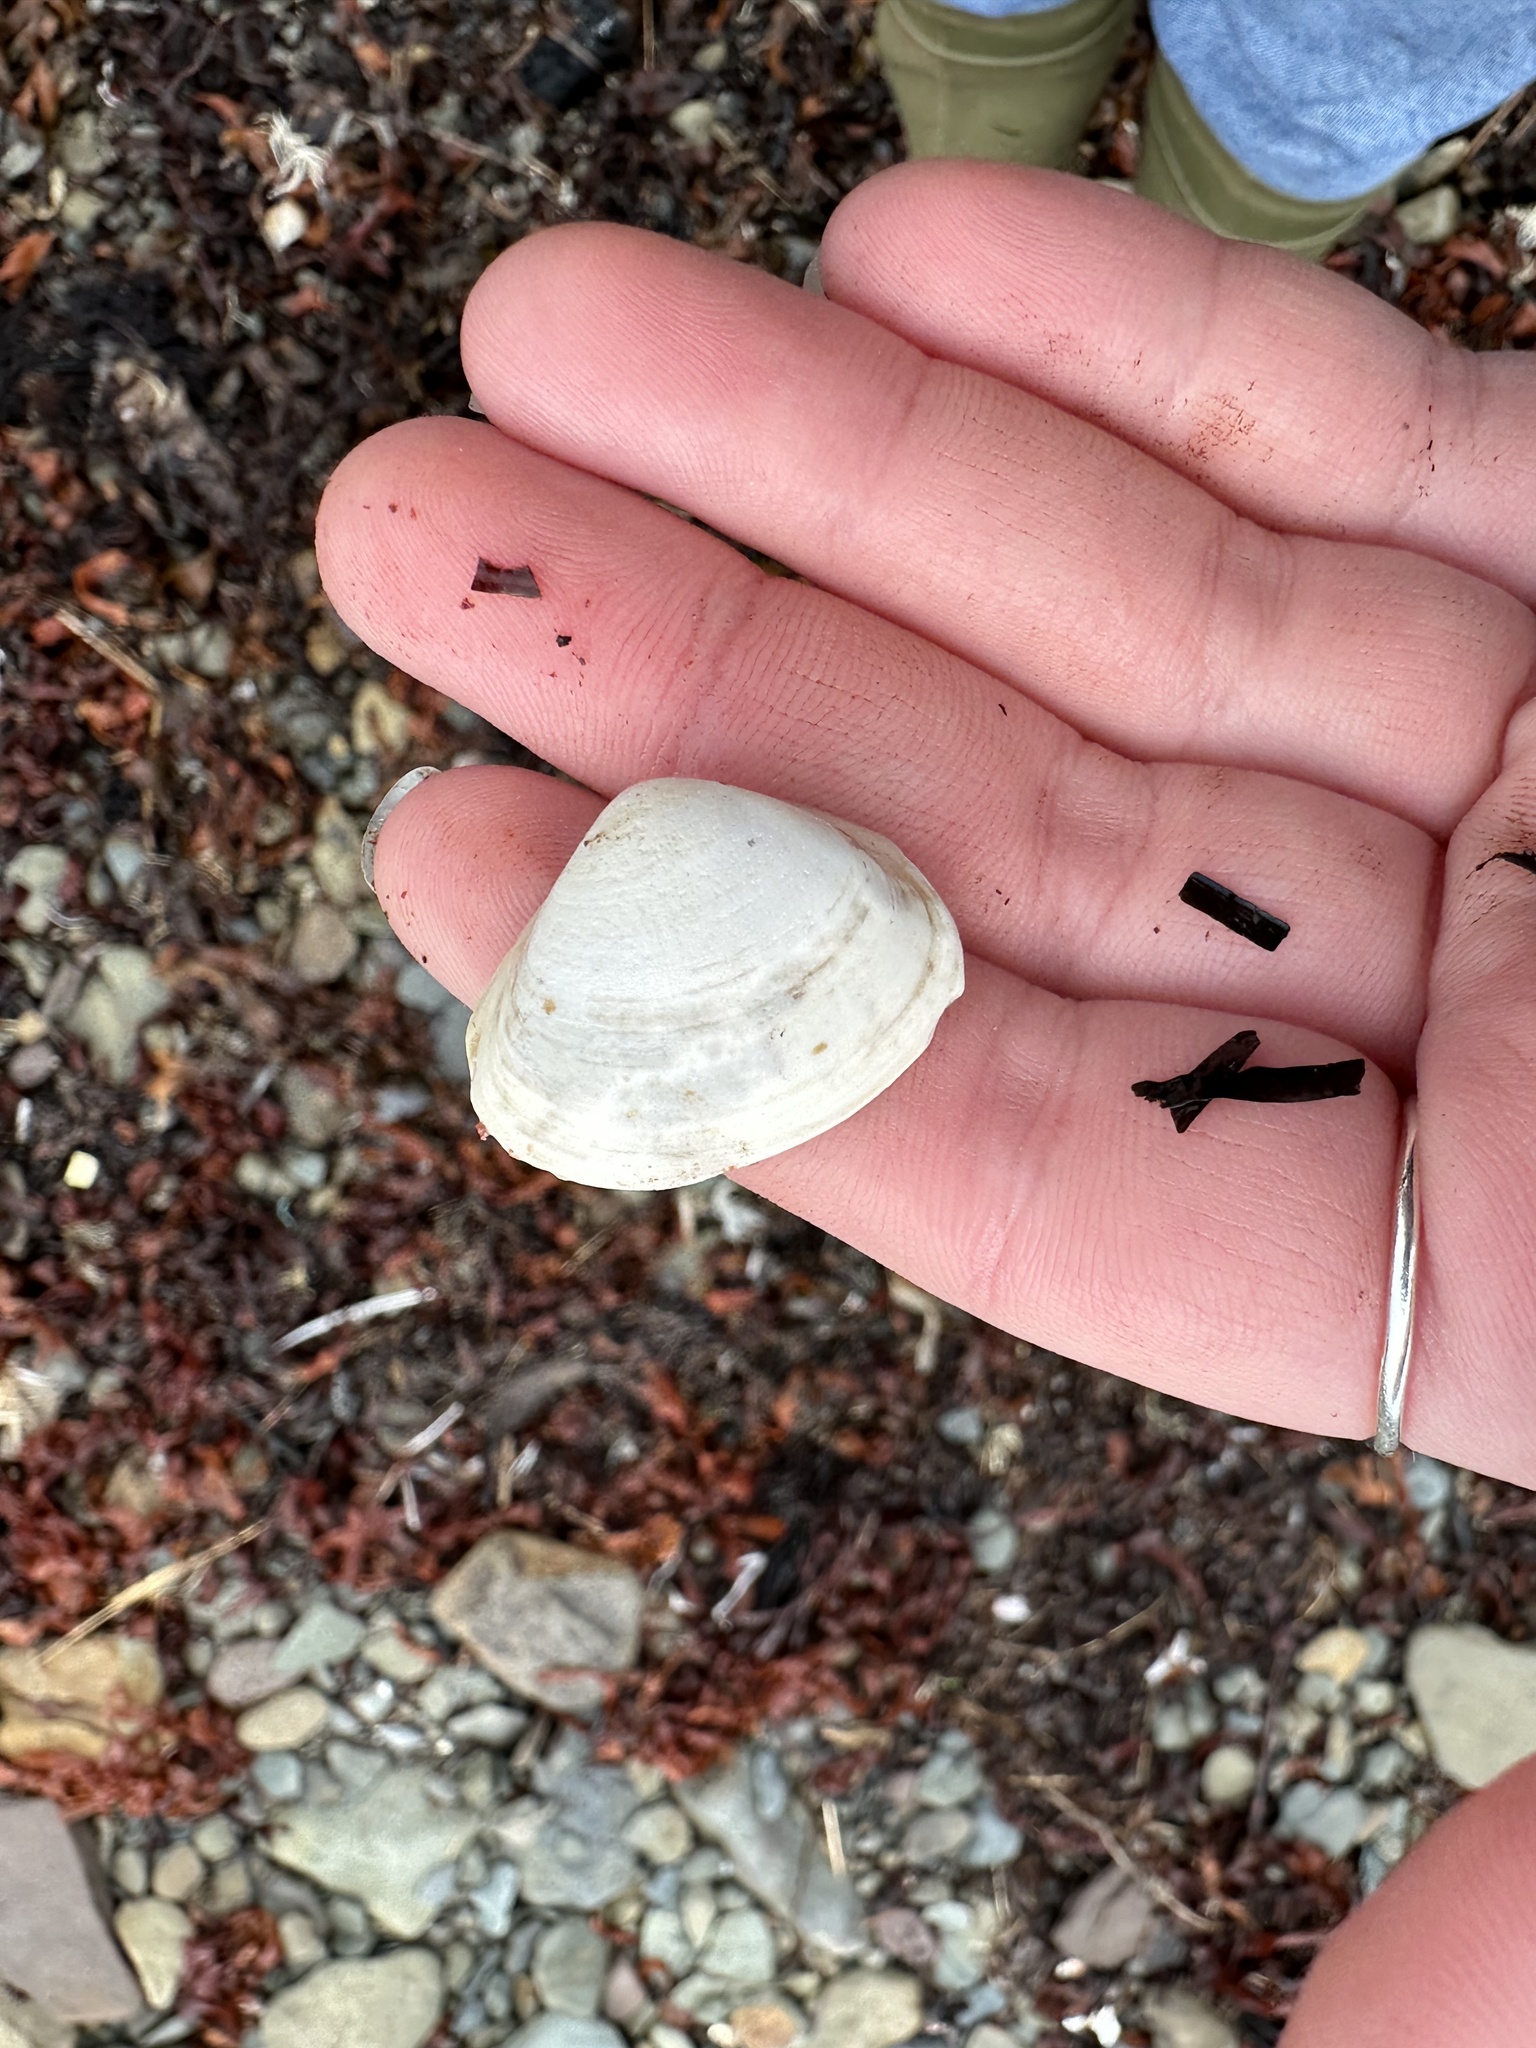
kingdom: Animalia
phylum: Mollusca
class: Bivalvia
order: Venerida
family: Mactridae
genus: Spisula
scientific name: Spisula solidissima
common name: Atlantic surf clam
